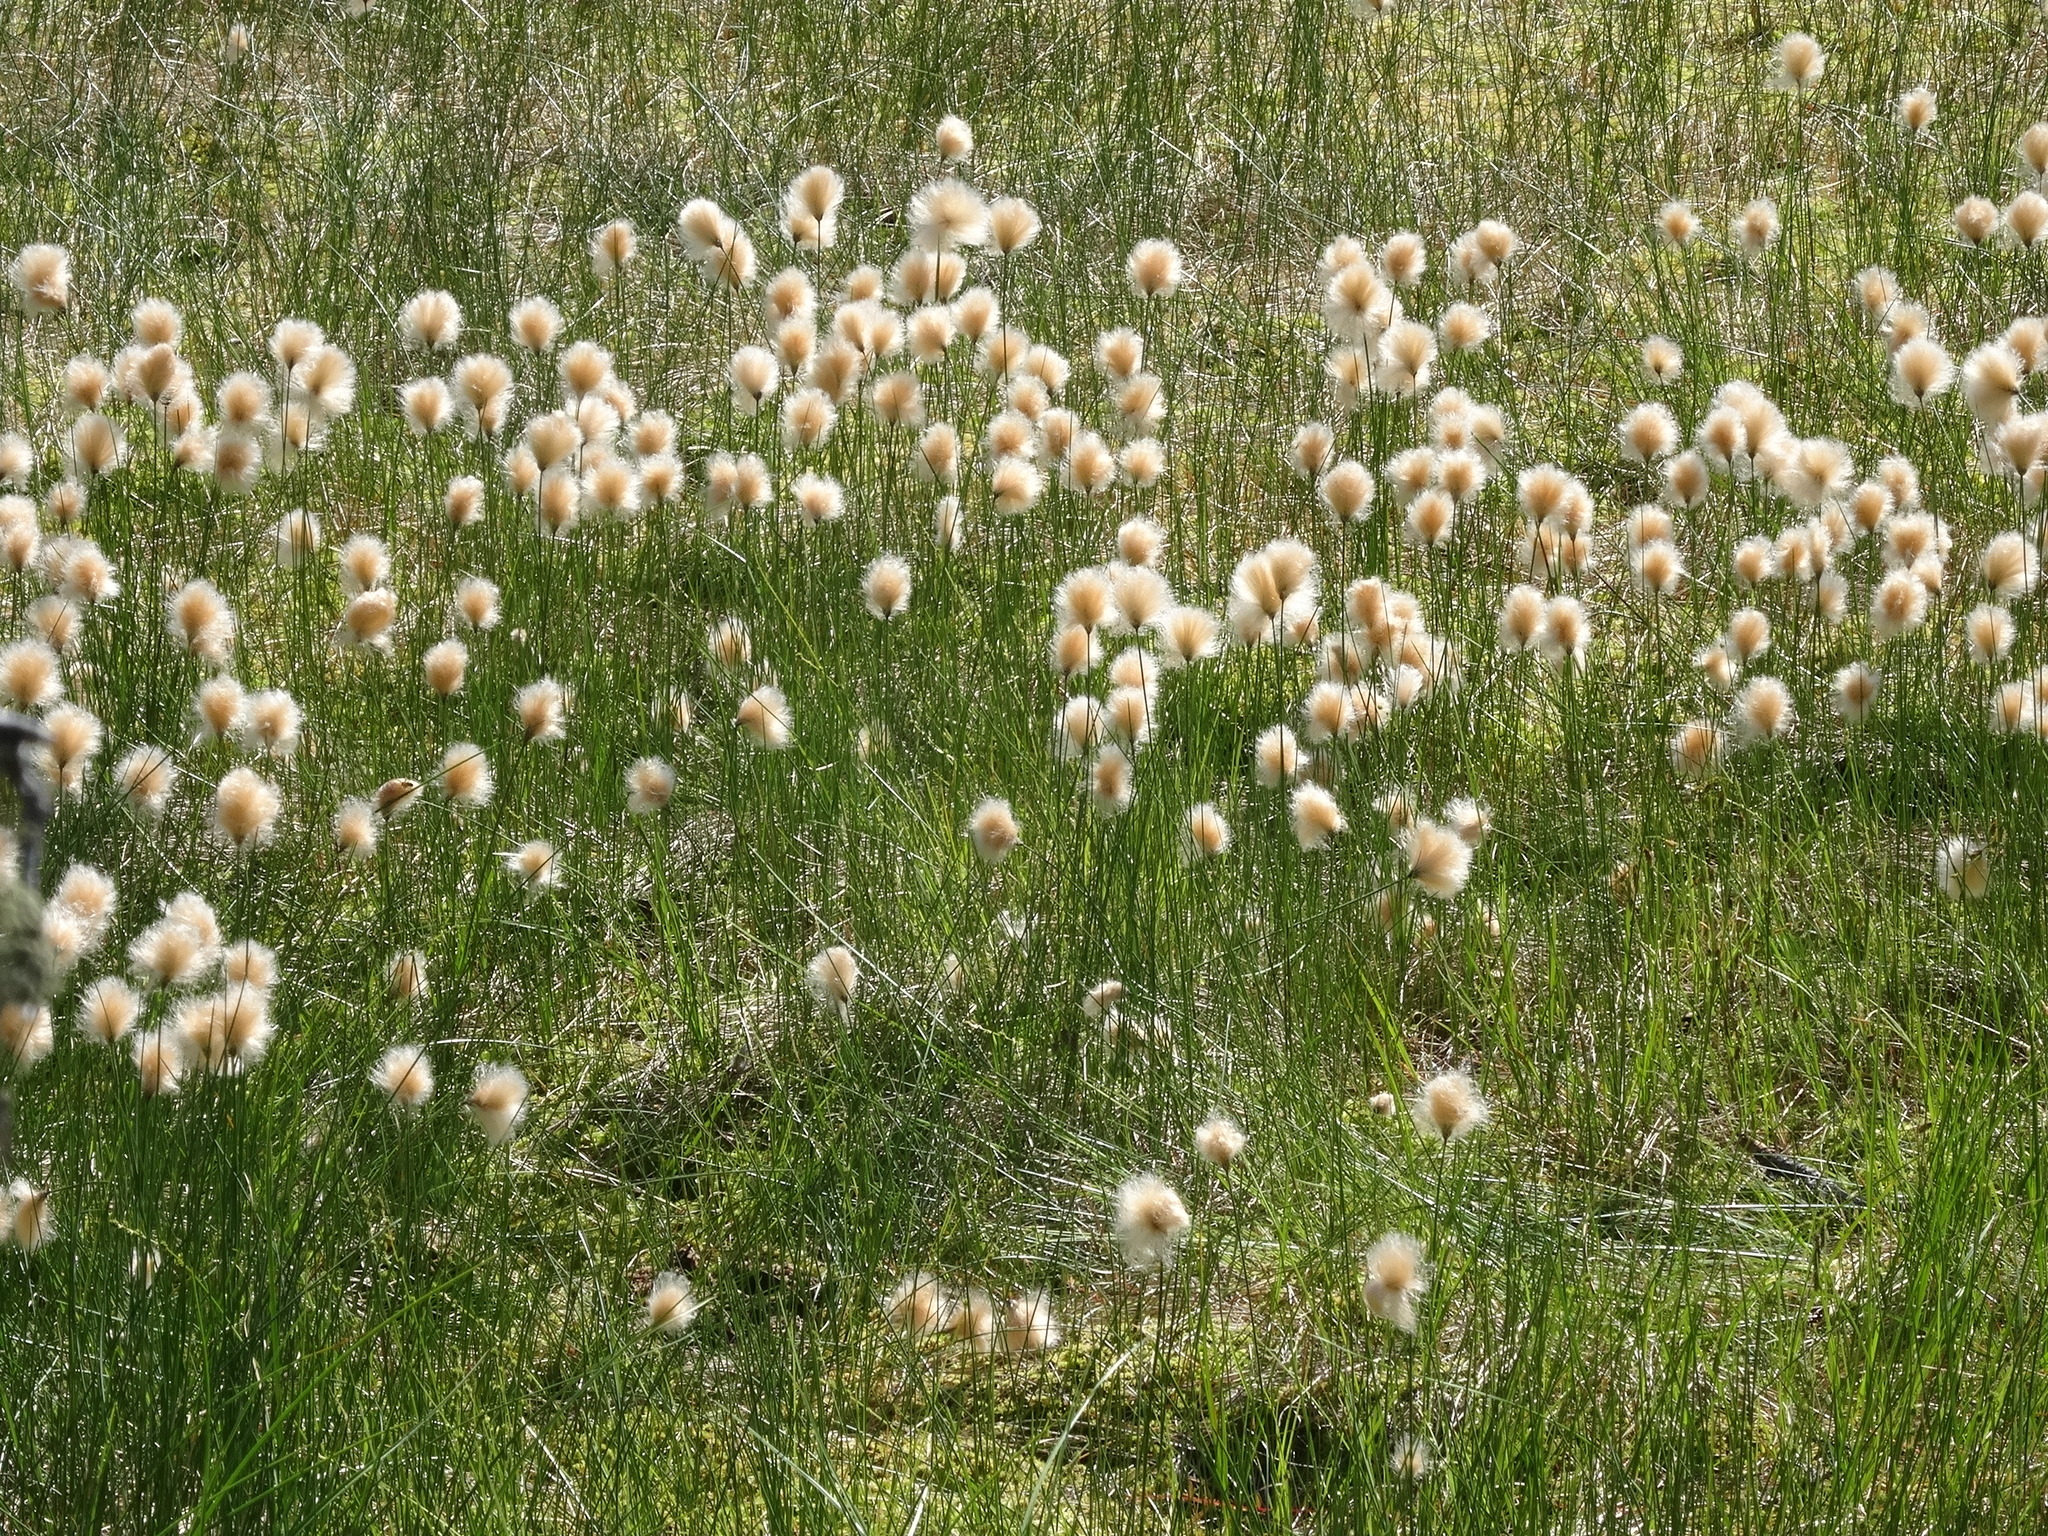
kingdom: Plantae
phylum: Tracheophyta
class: Liliopsida
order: Poales
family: Cyperaceae
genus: Eriophorum
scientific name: Eriophorum chamissonis
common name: Chamisso's cottongrass
